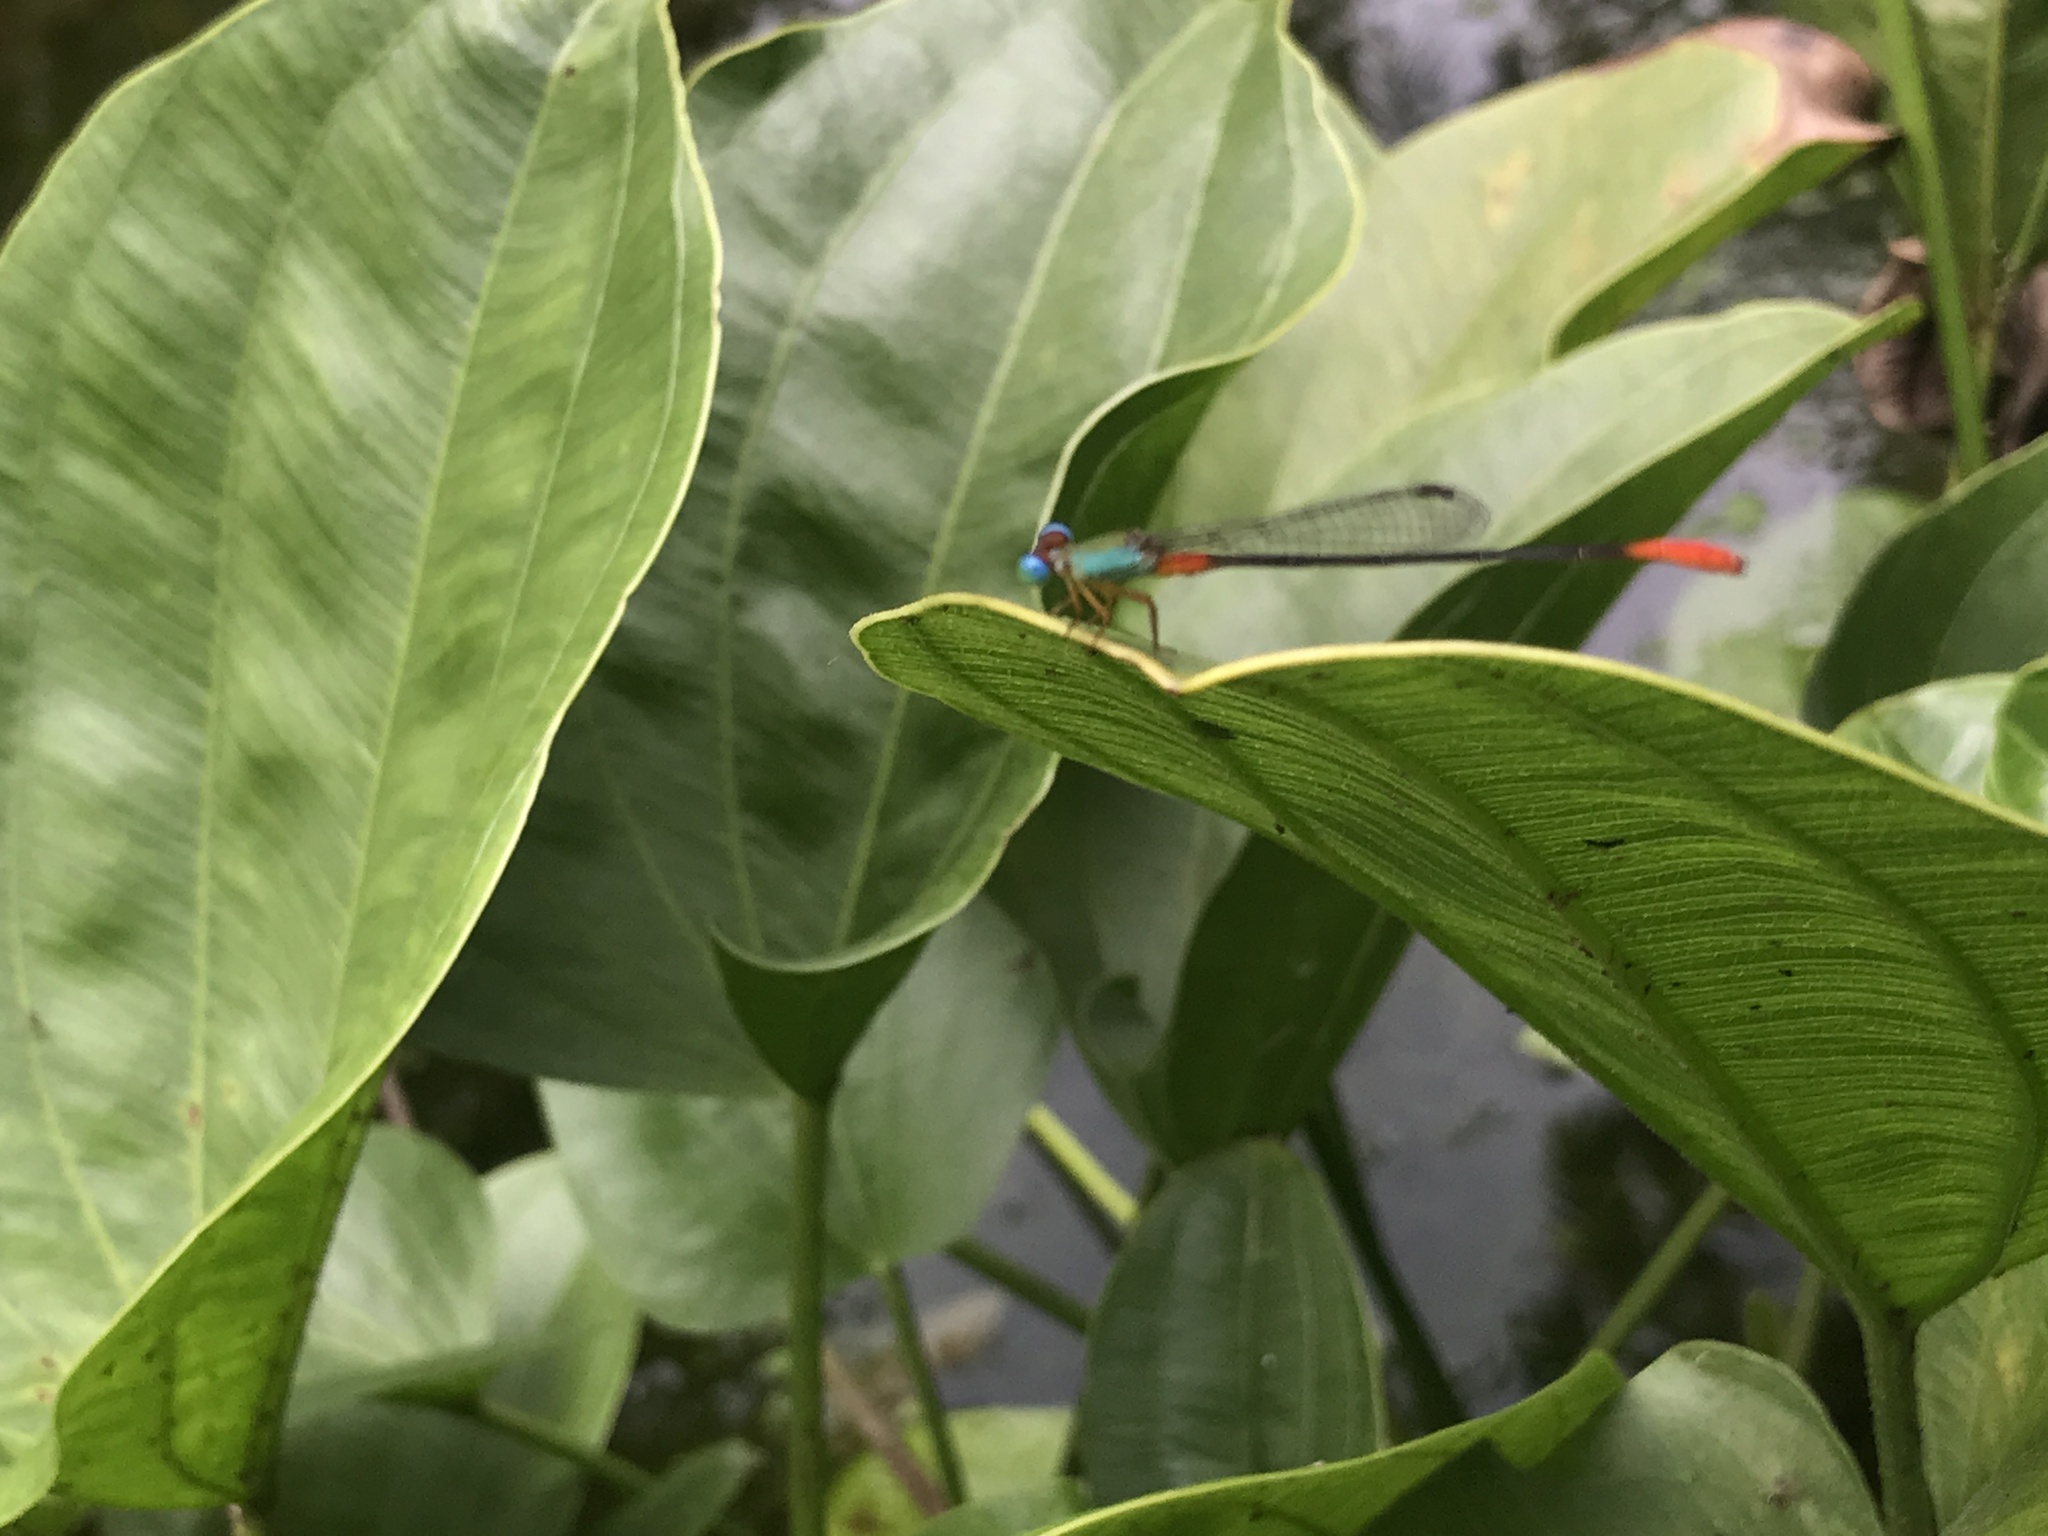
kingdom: Animalia
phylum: Arthropoda
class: Insecta
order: Odonata
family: Coenagrionidae
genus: Ceriagrion
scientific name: Ceriagrion cerinorubellum
